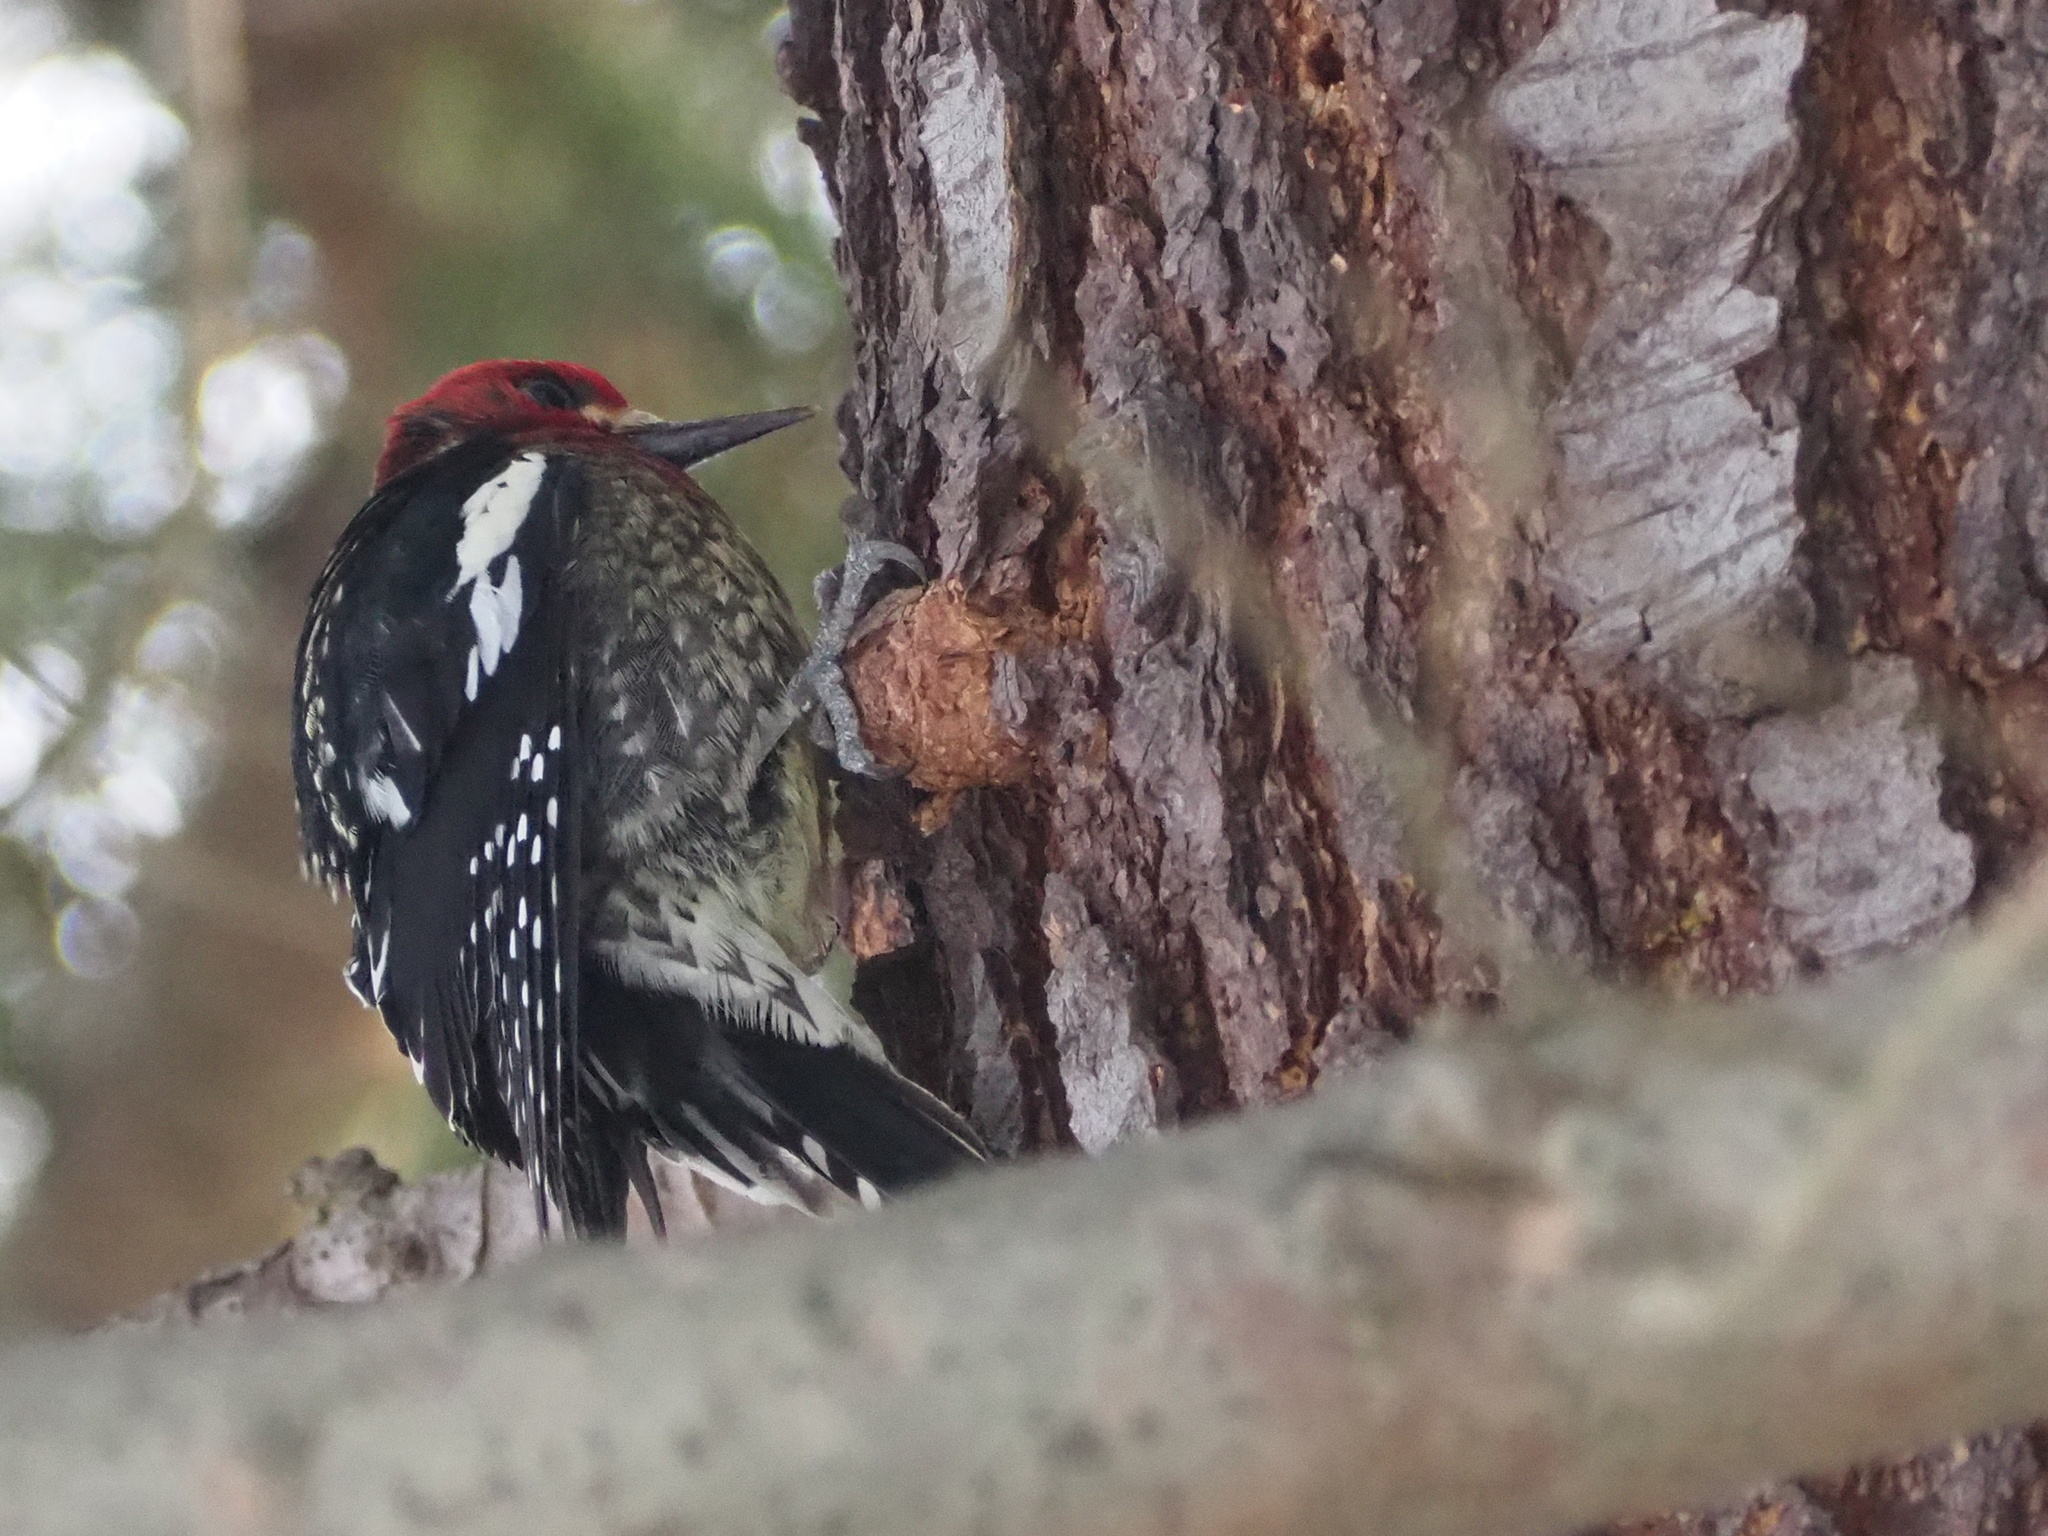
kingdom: Animalia
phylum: Chordata
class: Aves
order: Piciformes
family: Picidae
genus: Sphyrapicus
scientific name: Sphyrapicus ruber
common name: Red-breasted sapsucker
